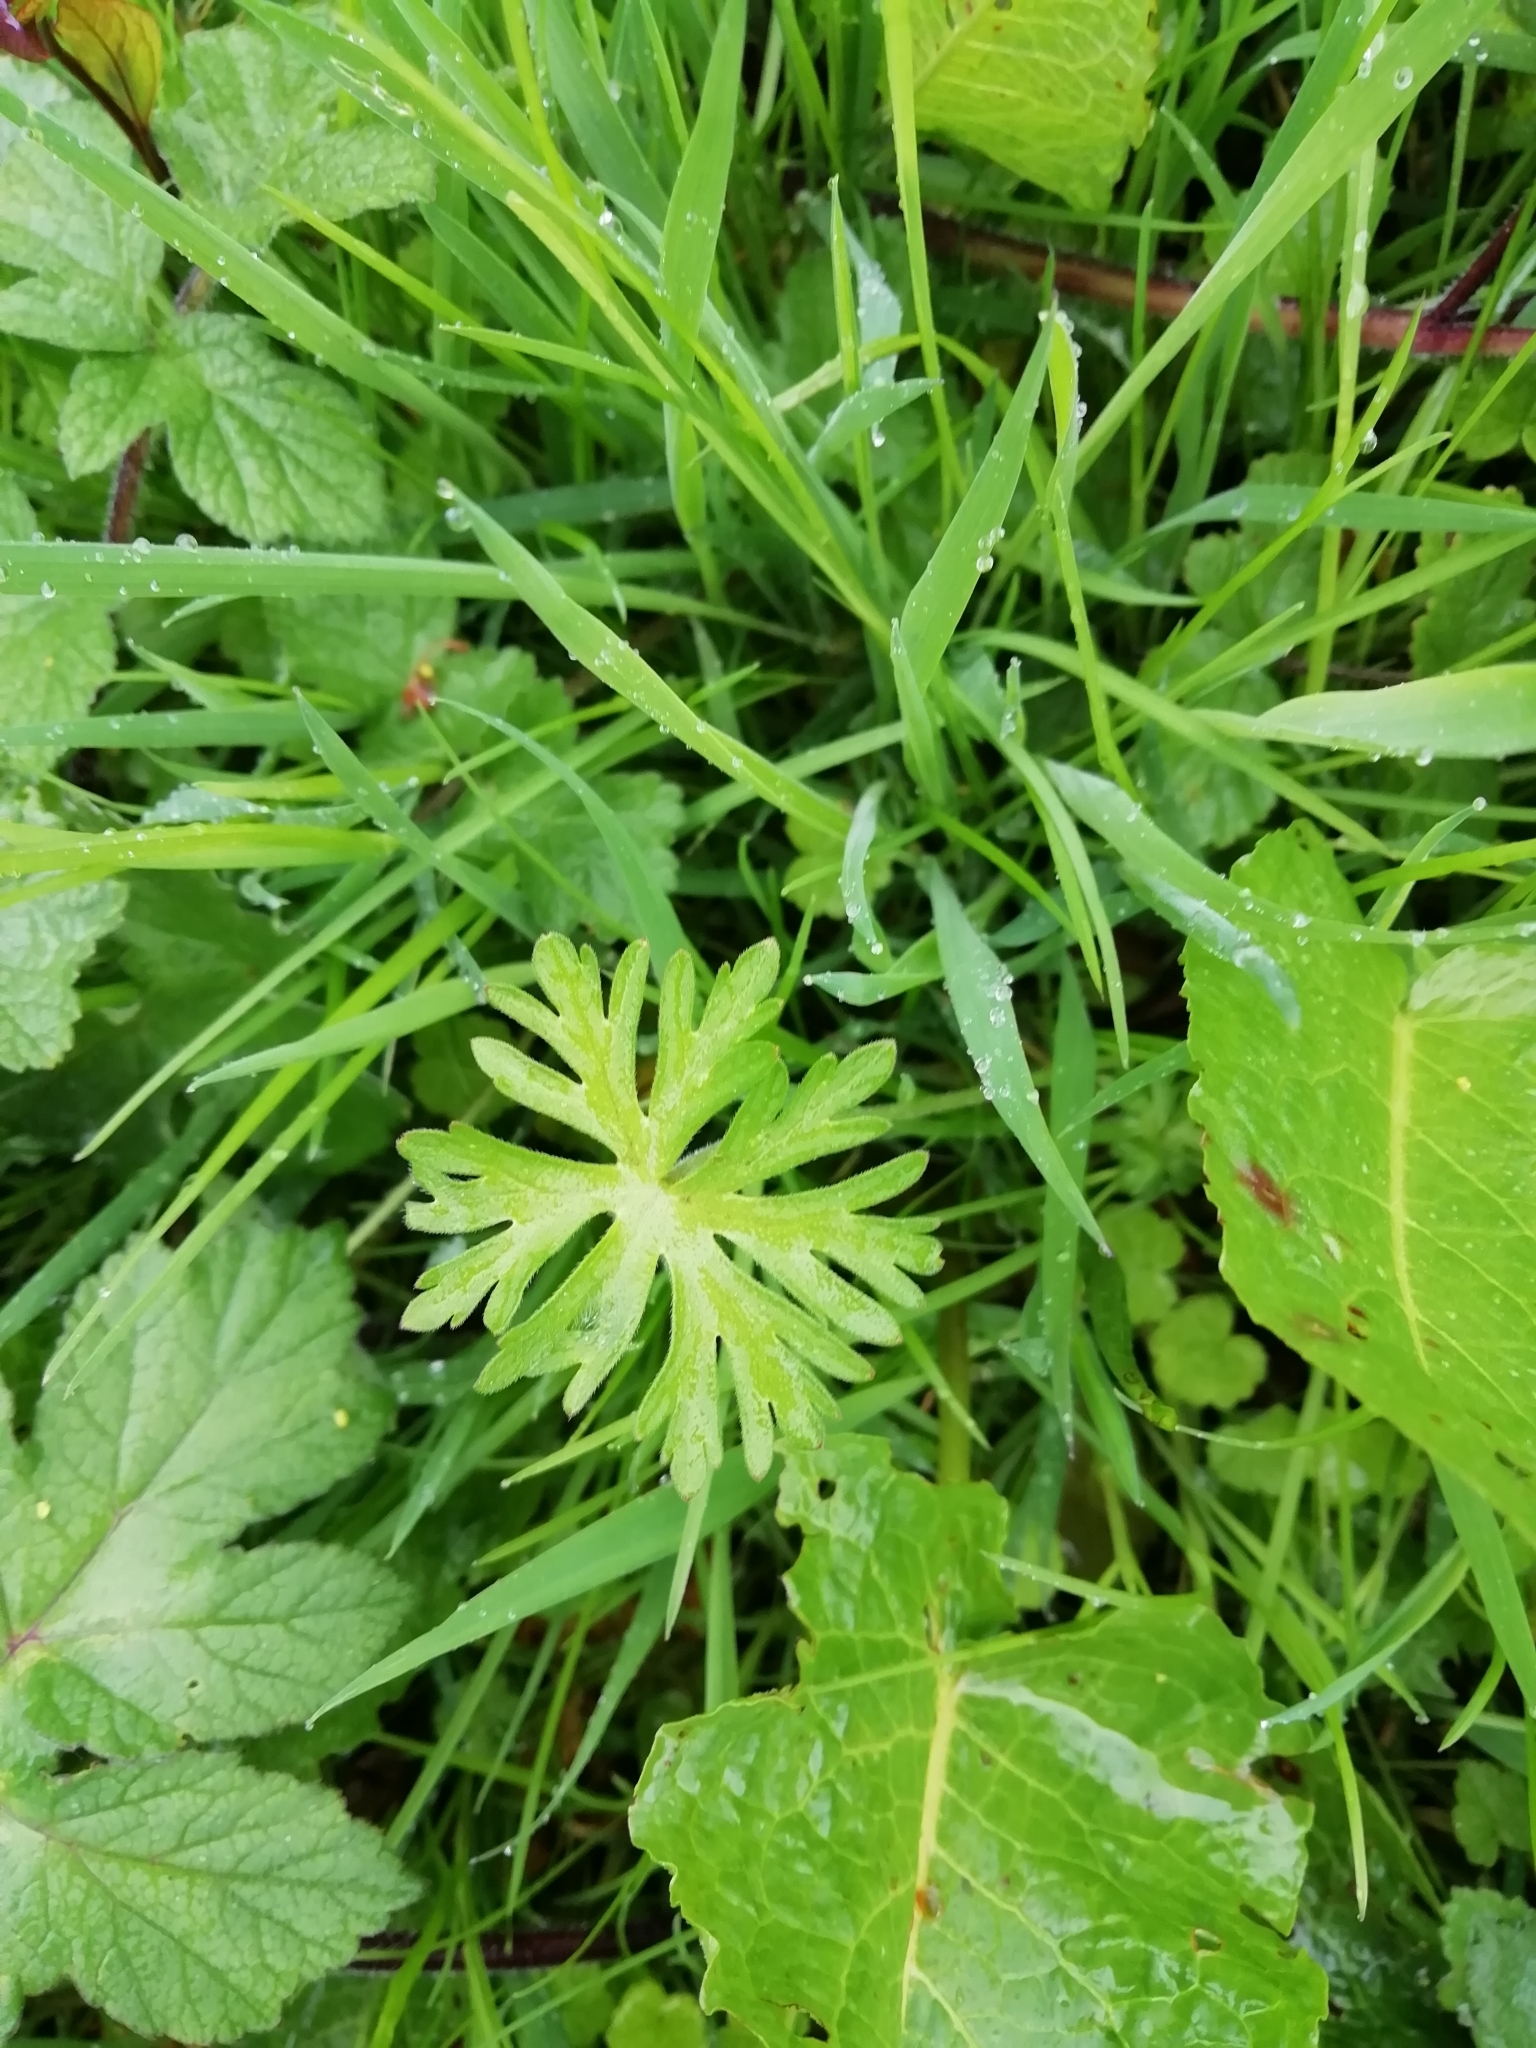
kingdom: Plantae
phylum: Tracheophyta
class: Magnoliopsida
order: Geraniales
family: Geraniaceae
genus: Geranium
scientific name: Geranium dissectum
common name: Cut-leaved crane's-bill
